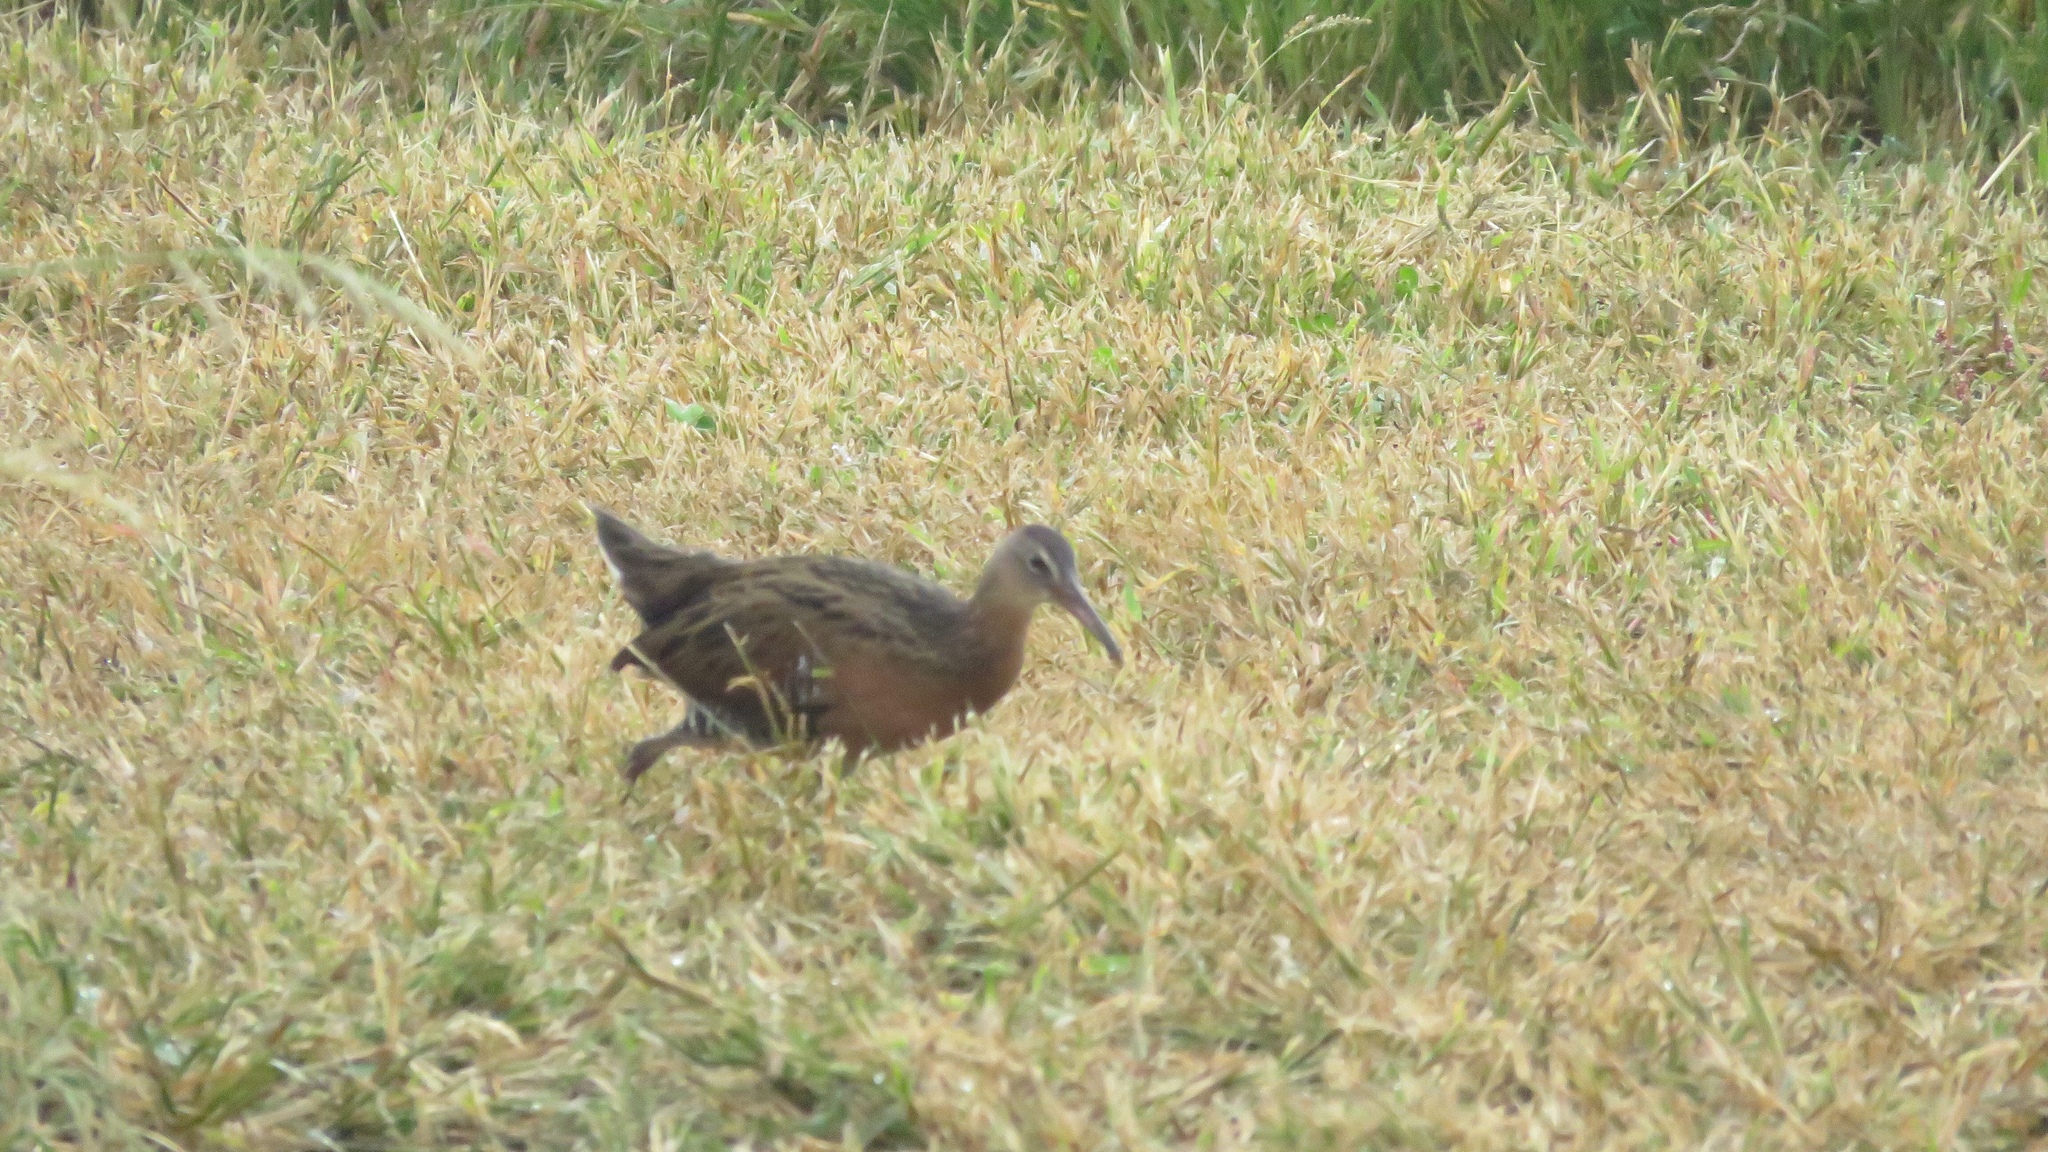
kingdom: Animalia
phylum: Chordata
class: Aves
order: Gruiformes
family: Rallidae
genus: Rallus
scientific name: Rallus elegans
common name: King rail
